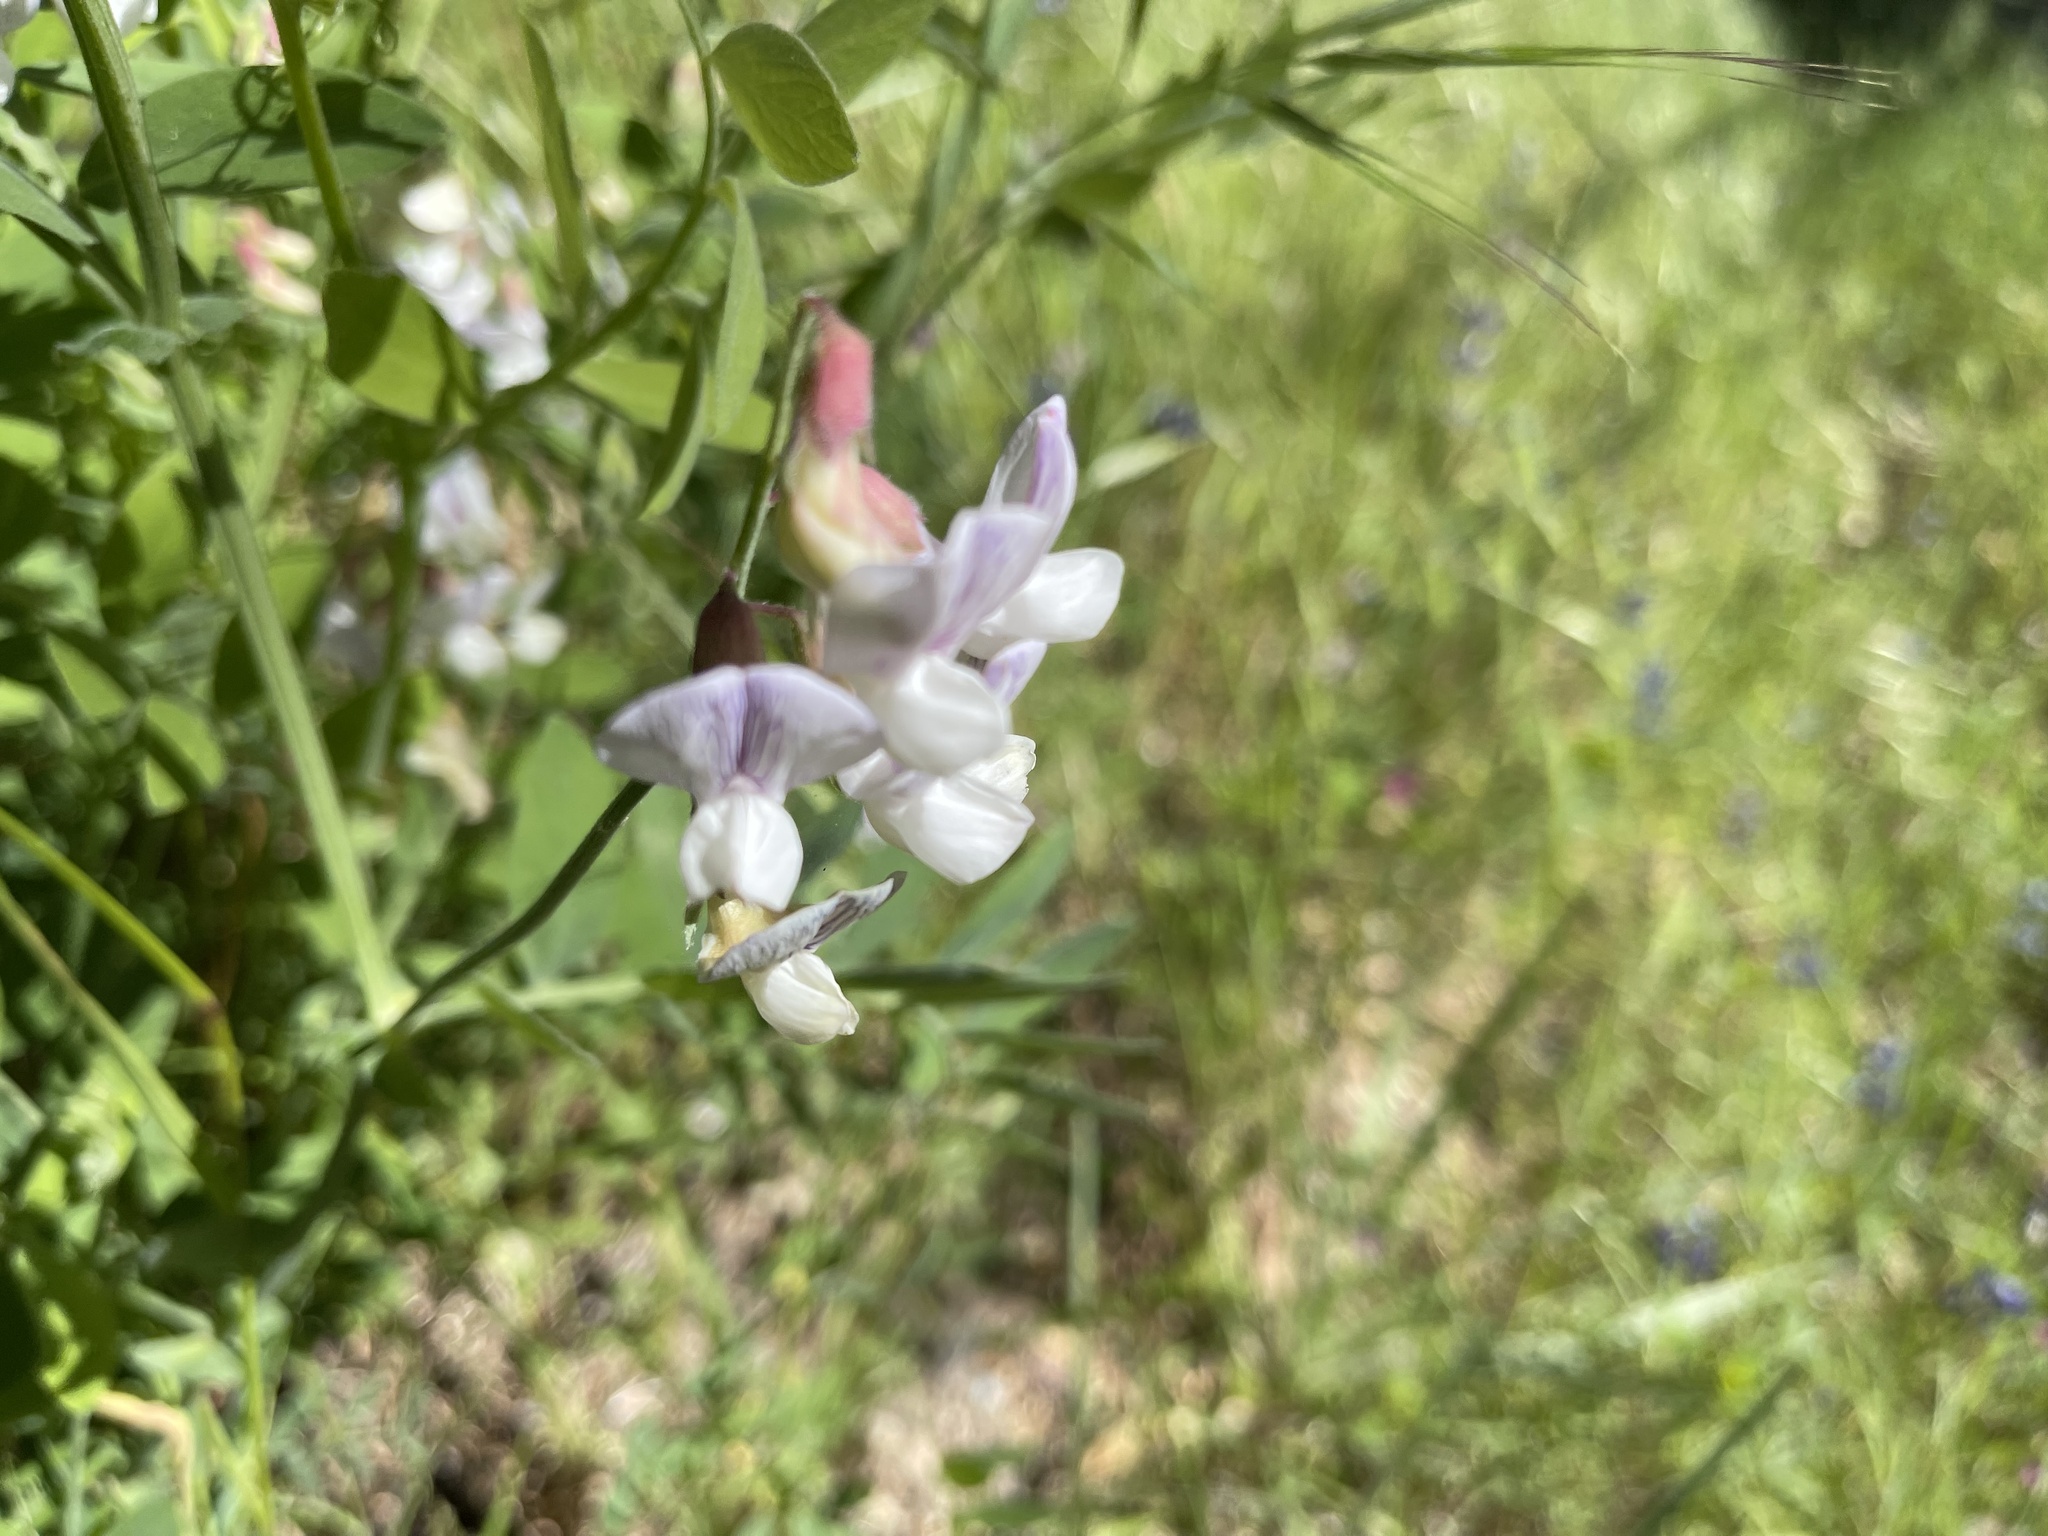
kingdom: Plantae
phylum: Tracheophyta
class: Magnoliopsida
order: Fabales
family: Fabaceae
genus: Lathyrus
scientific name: Lathyrus vestitus
